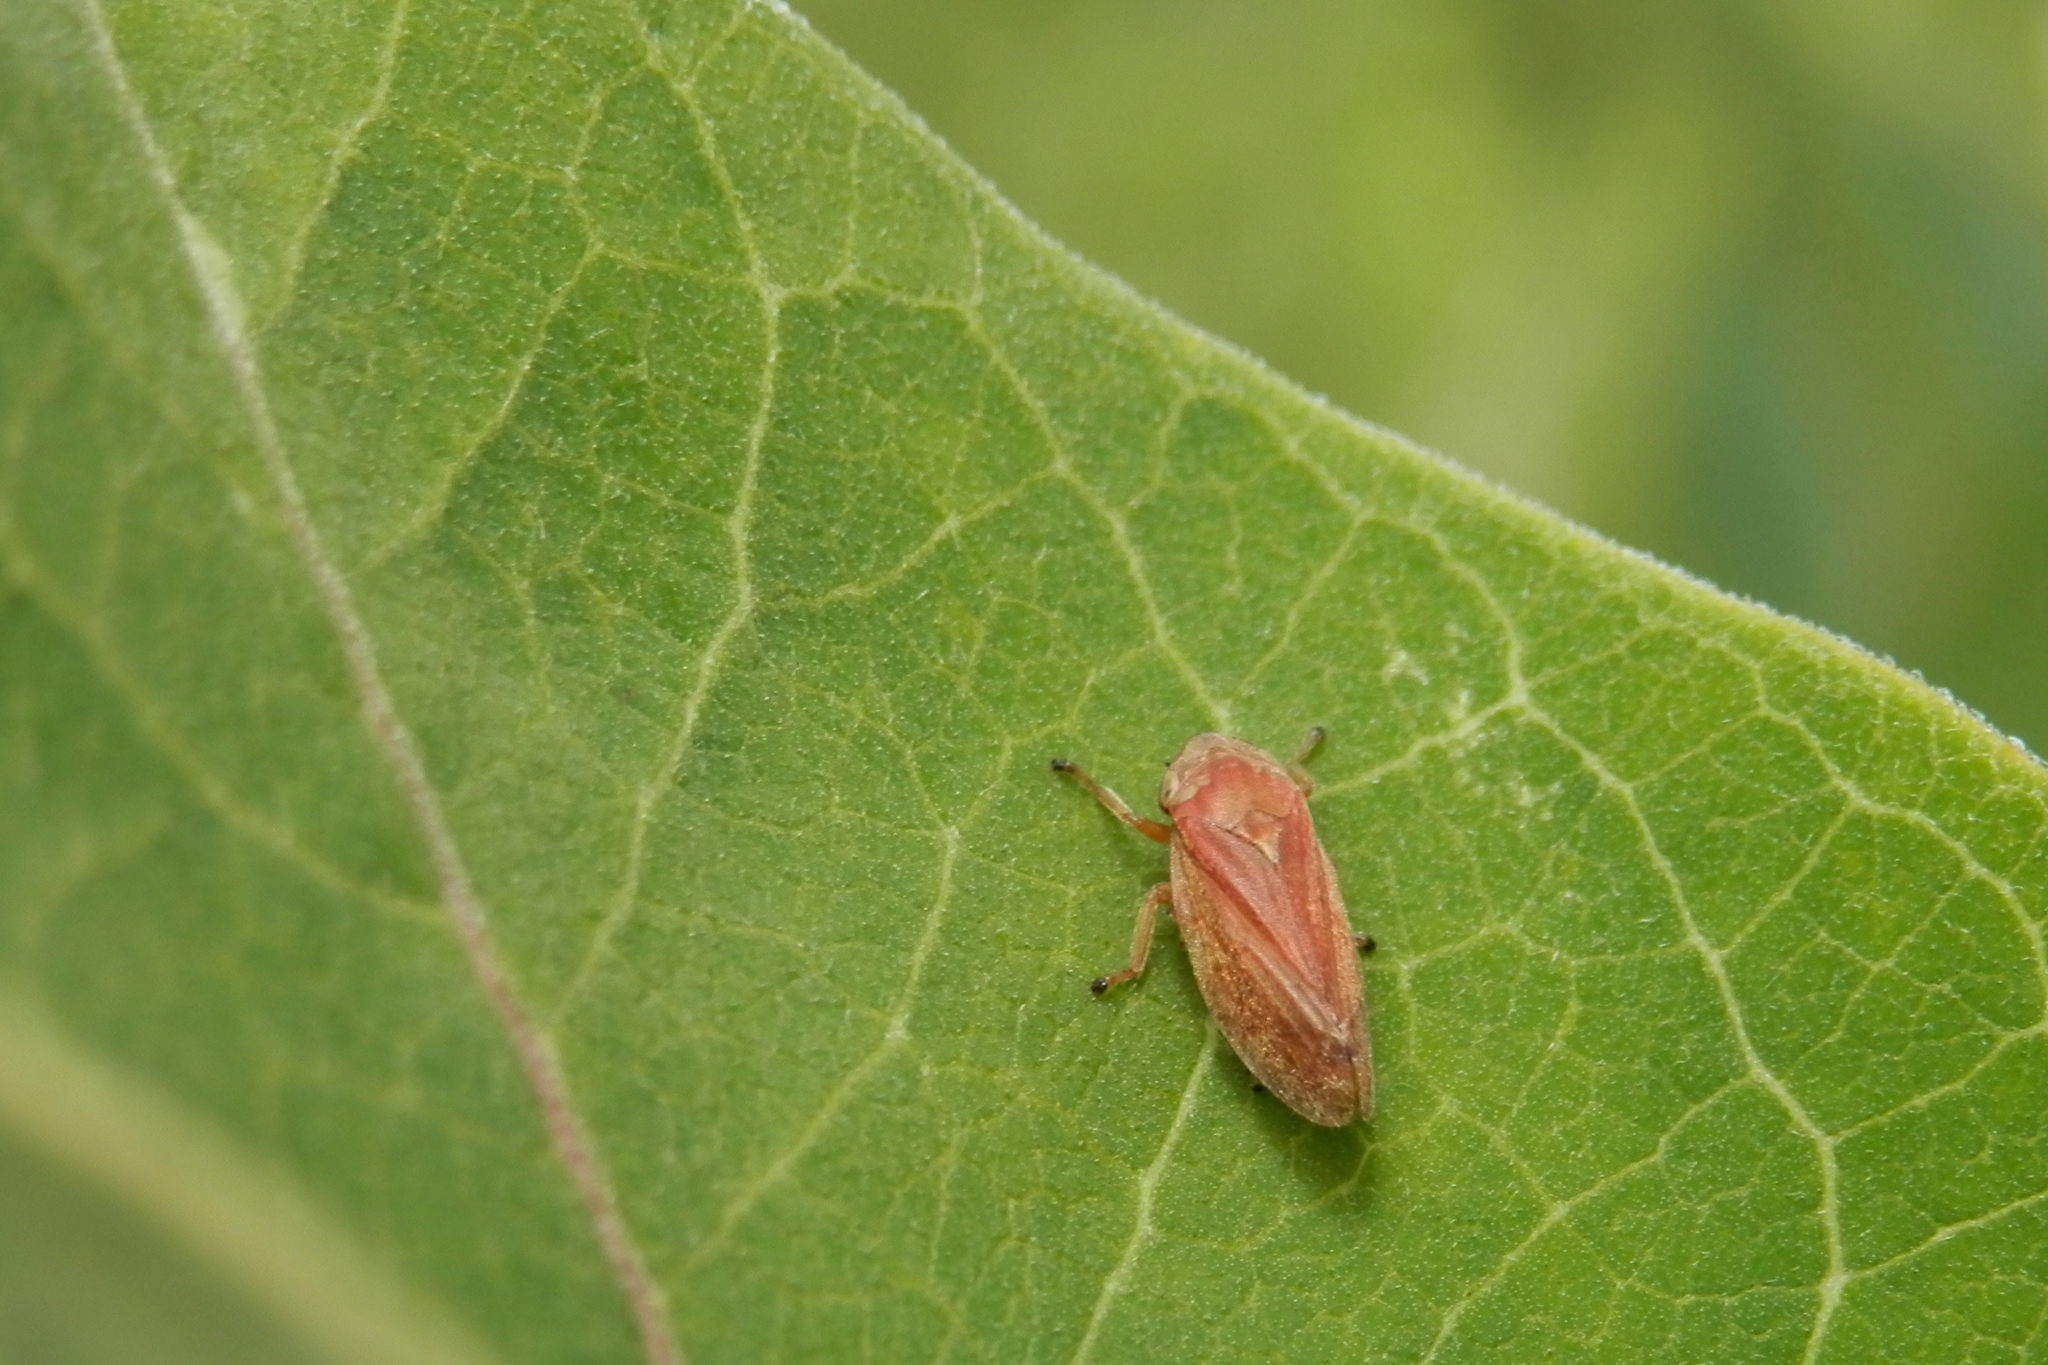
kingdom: Animalia
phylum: Arthropoda
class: Insecta
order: Hemiptera
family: Aphrophoridae
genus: Philaenus
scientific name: Philaenus spumarius
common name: Meadow spittlebug
